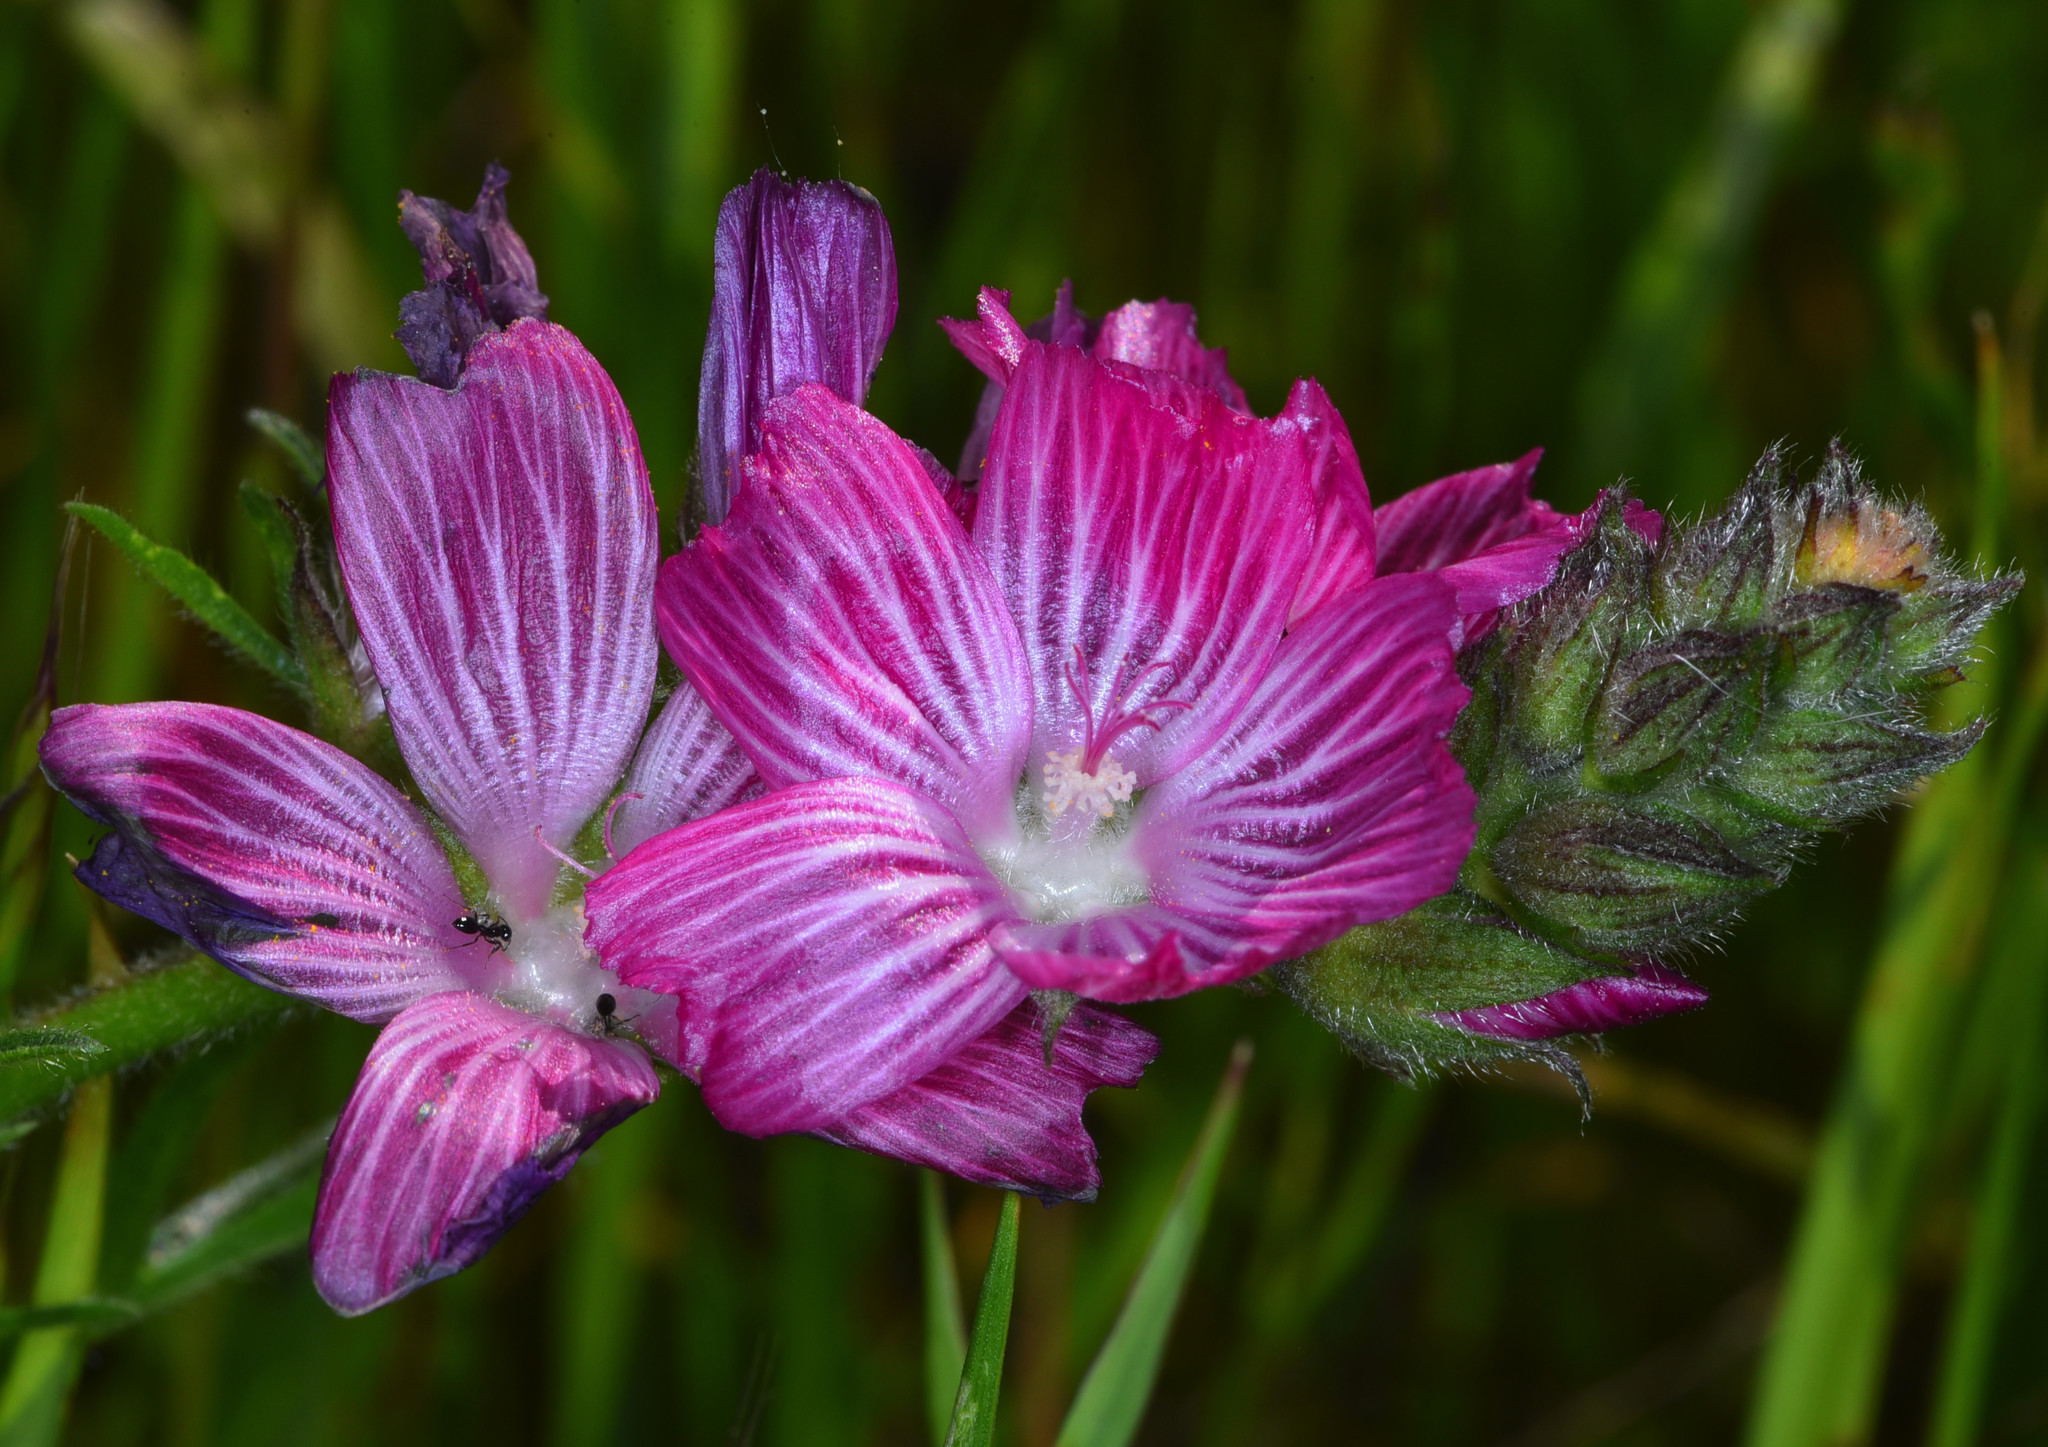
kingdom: Plantae
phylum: Tracheophyta
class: Magnoliopsida
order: Malvales
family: Malvaceae
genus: Sidalcea
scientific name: Sidalcea malviflora
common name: Greek mallow
